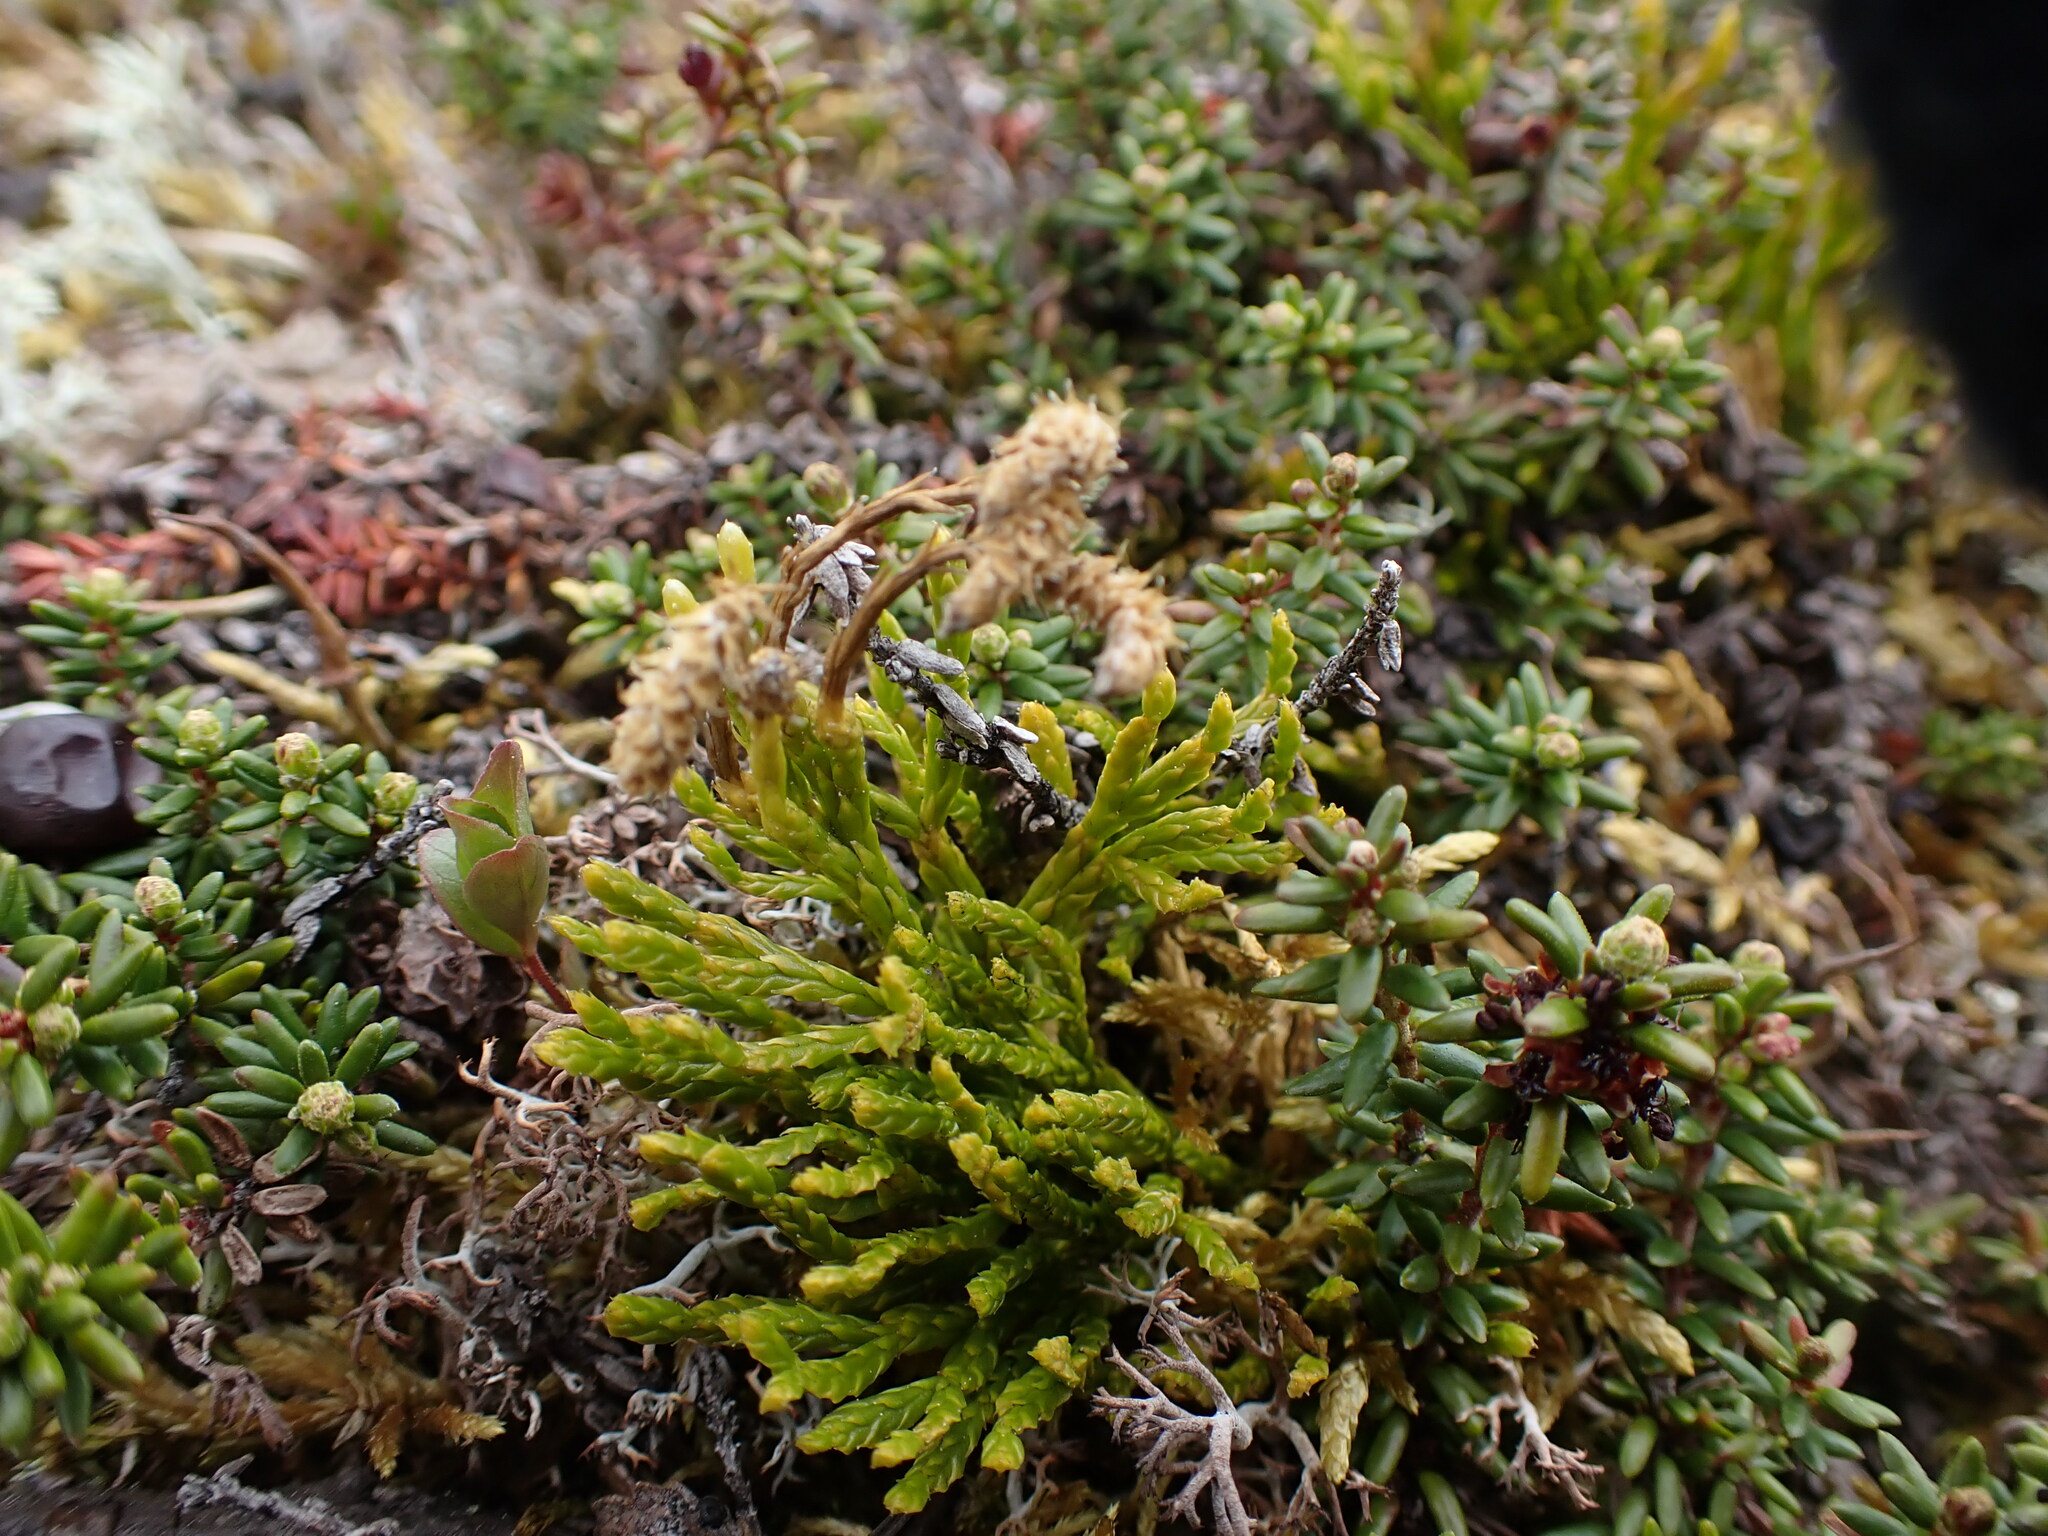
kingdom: Plantae
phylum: Tracheophyta
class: Lycopodiopsida
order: Lycopodiales
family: Lycopodiaceae
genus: Diphasiastrum
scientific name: Diphasiastrum complanatum
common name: Northern running-pine
